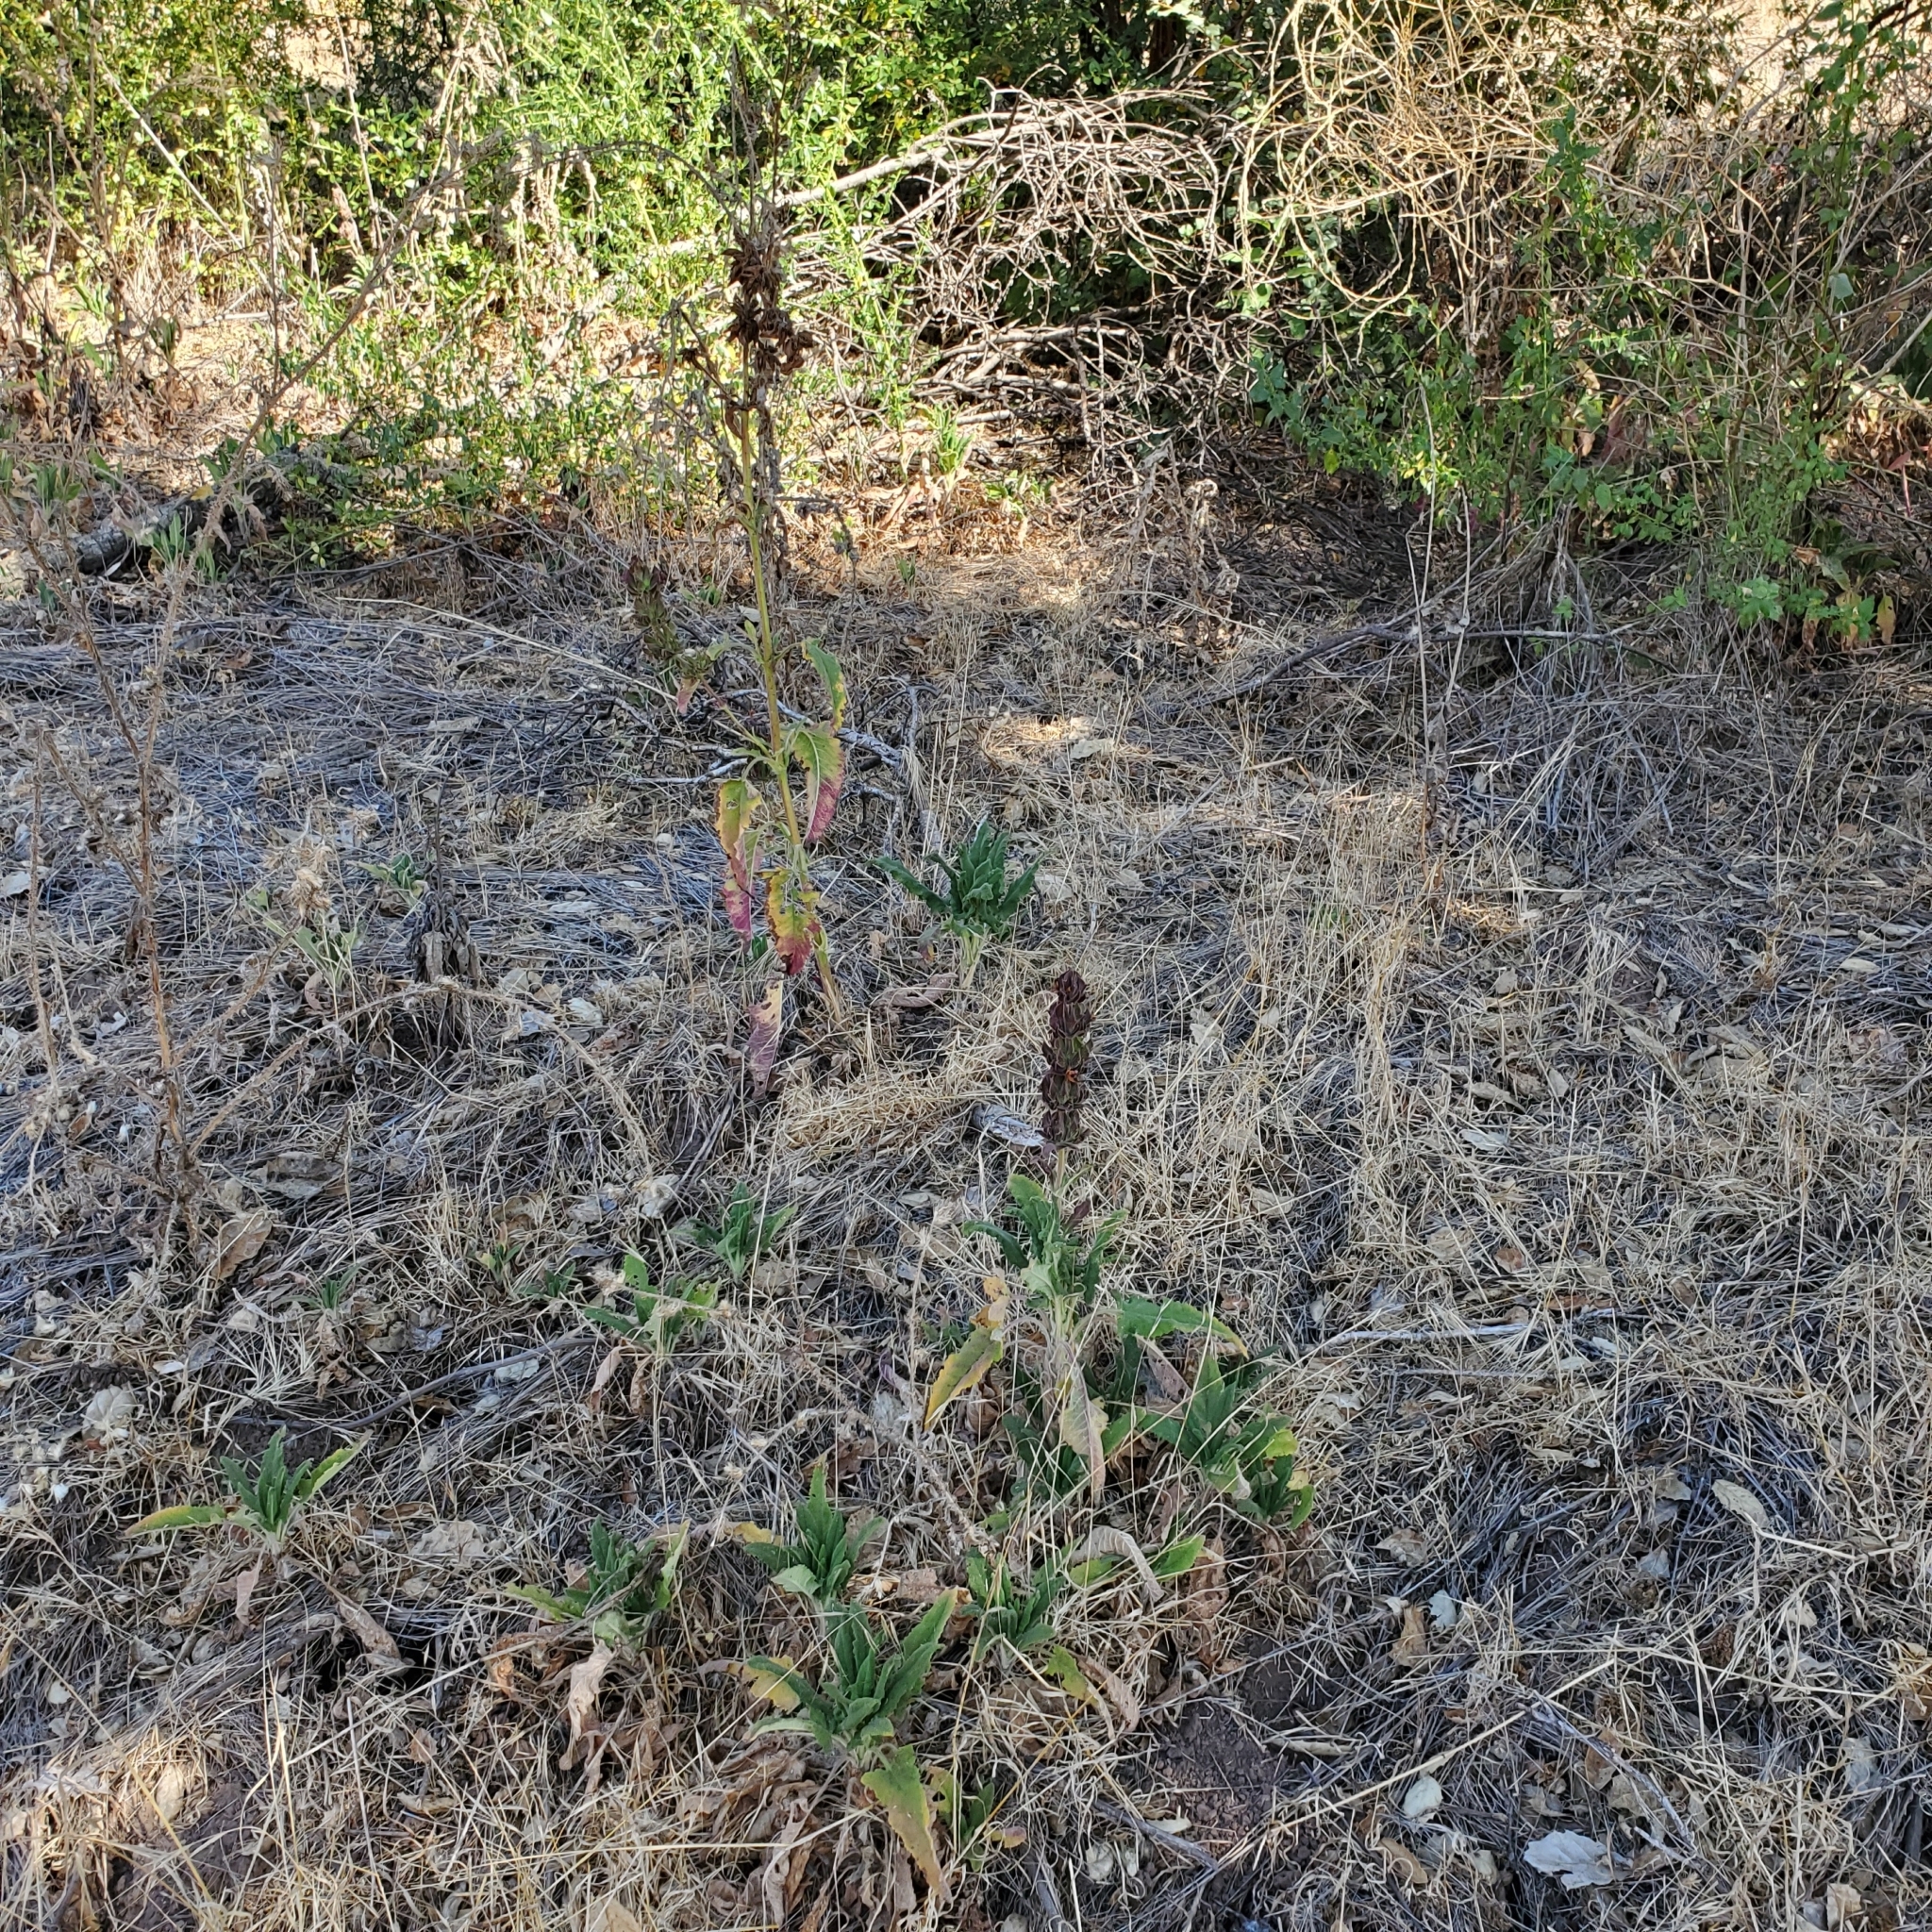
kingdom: Plantae
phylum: Tracheophyta
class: Magnoliopsida
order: Lamiales
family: Lamiaceae
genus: Salvia
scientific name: Salvia spathacea
